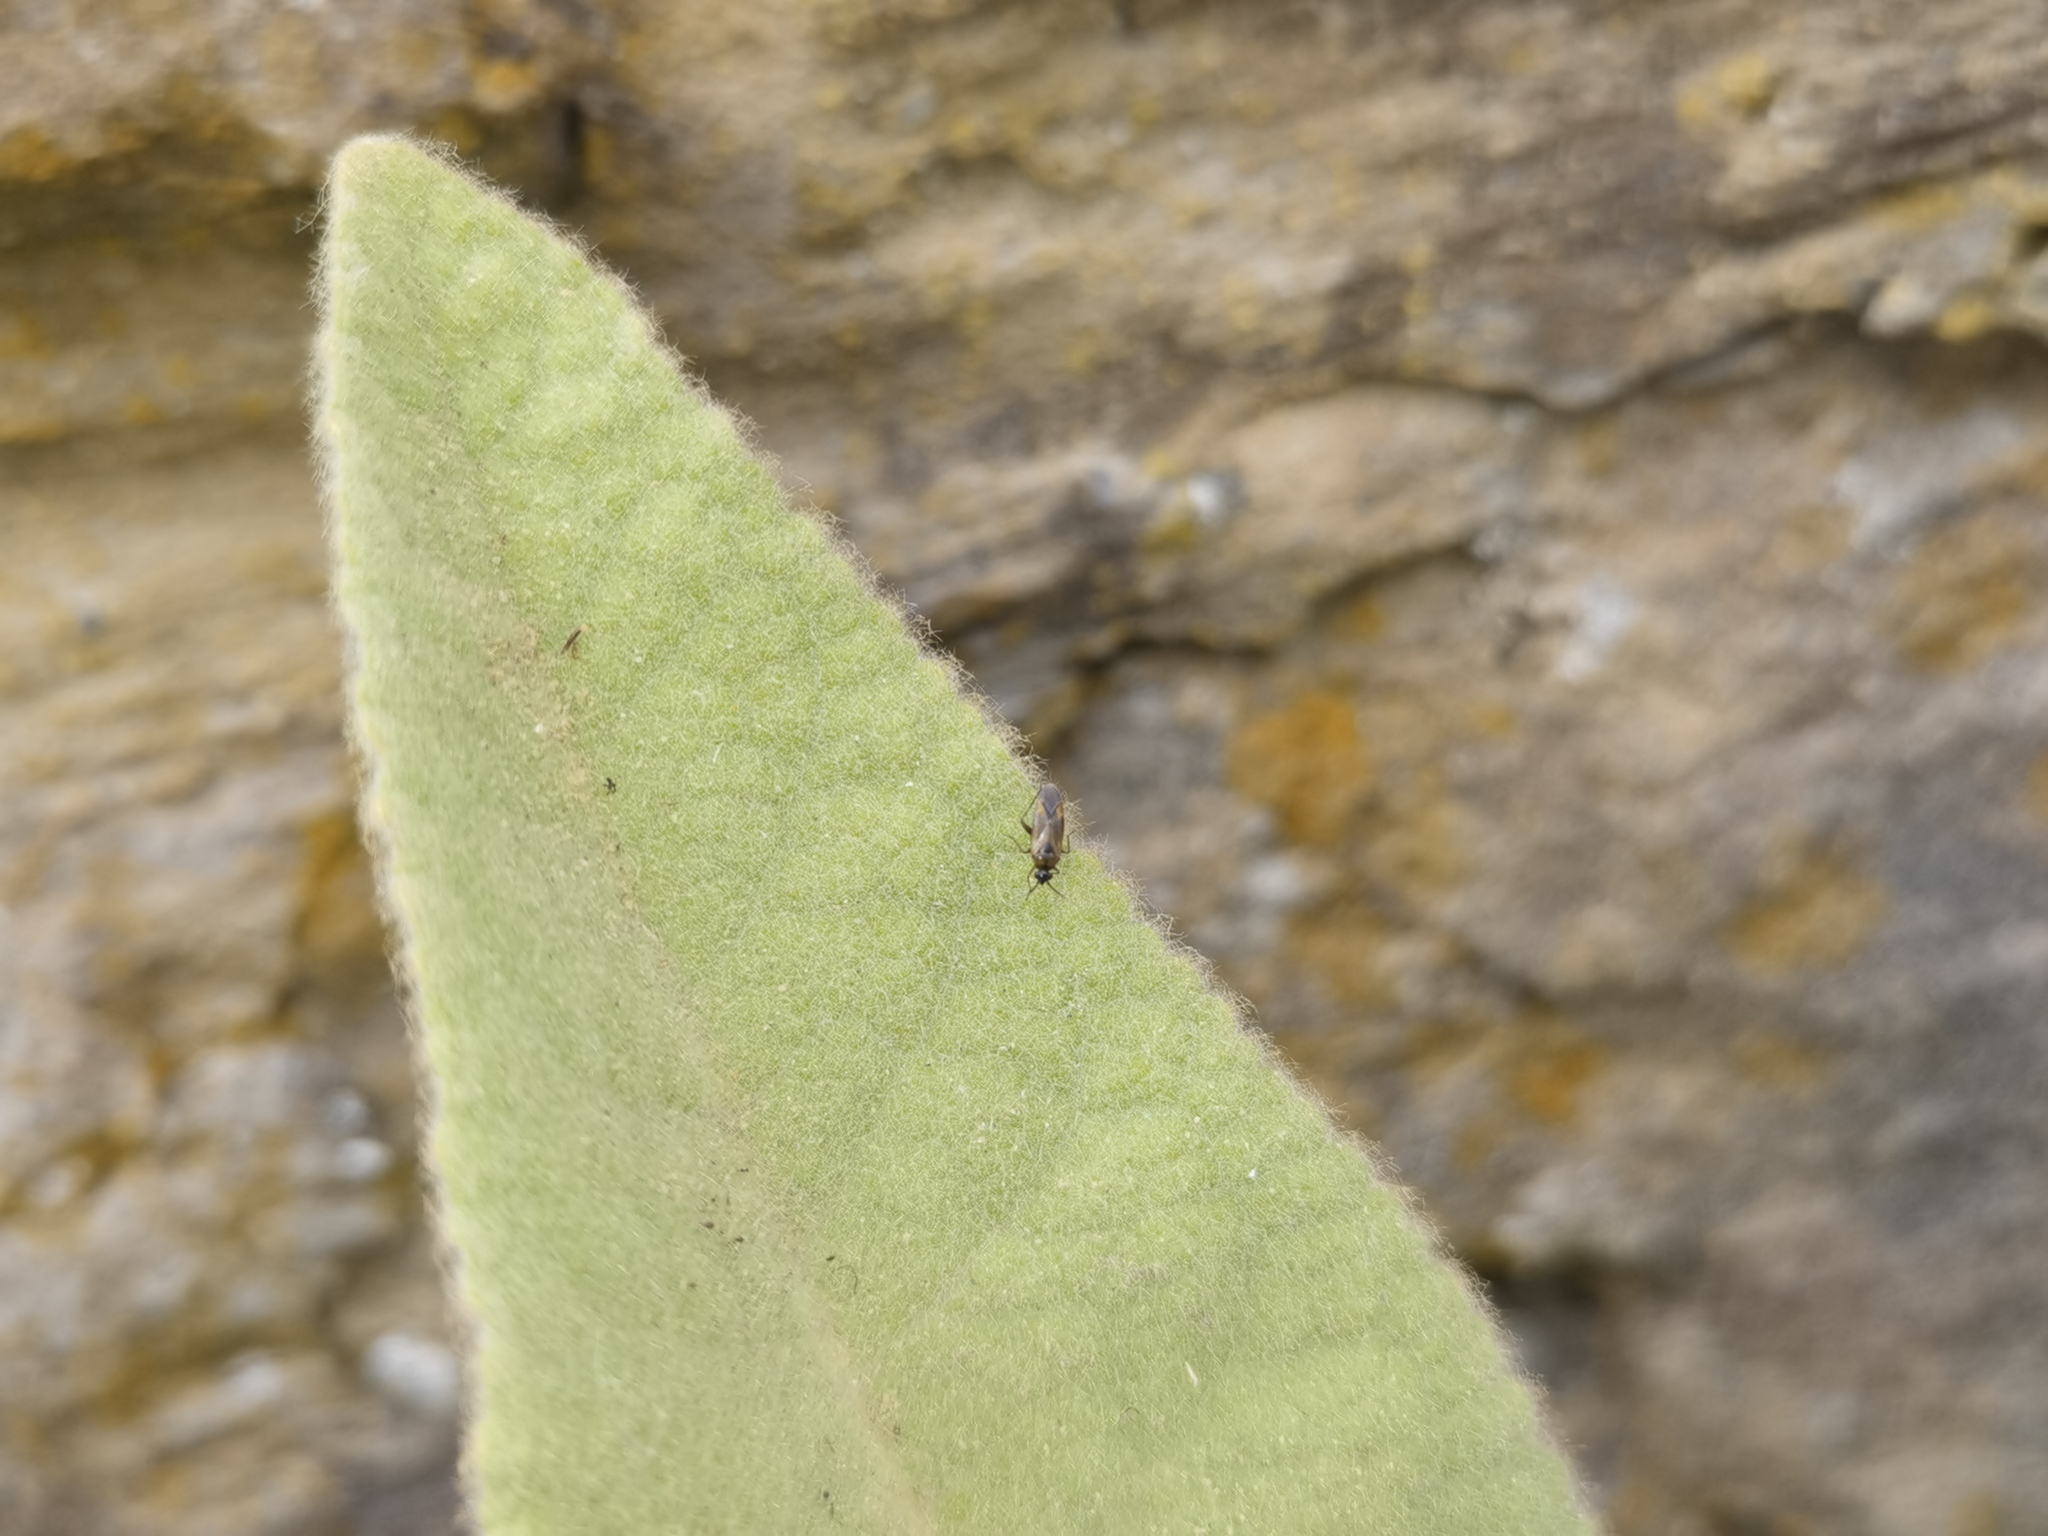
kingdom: Animalia
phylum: Arthropoda
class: Insecta
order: Hemiptera
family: Miridae
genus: Plagiognathus
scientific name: Plagiognathus arbustorum
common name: Plant bug
